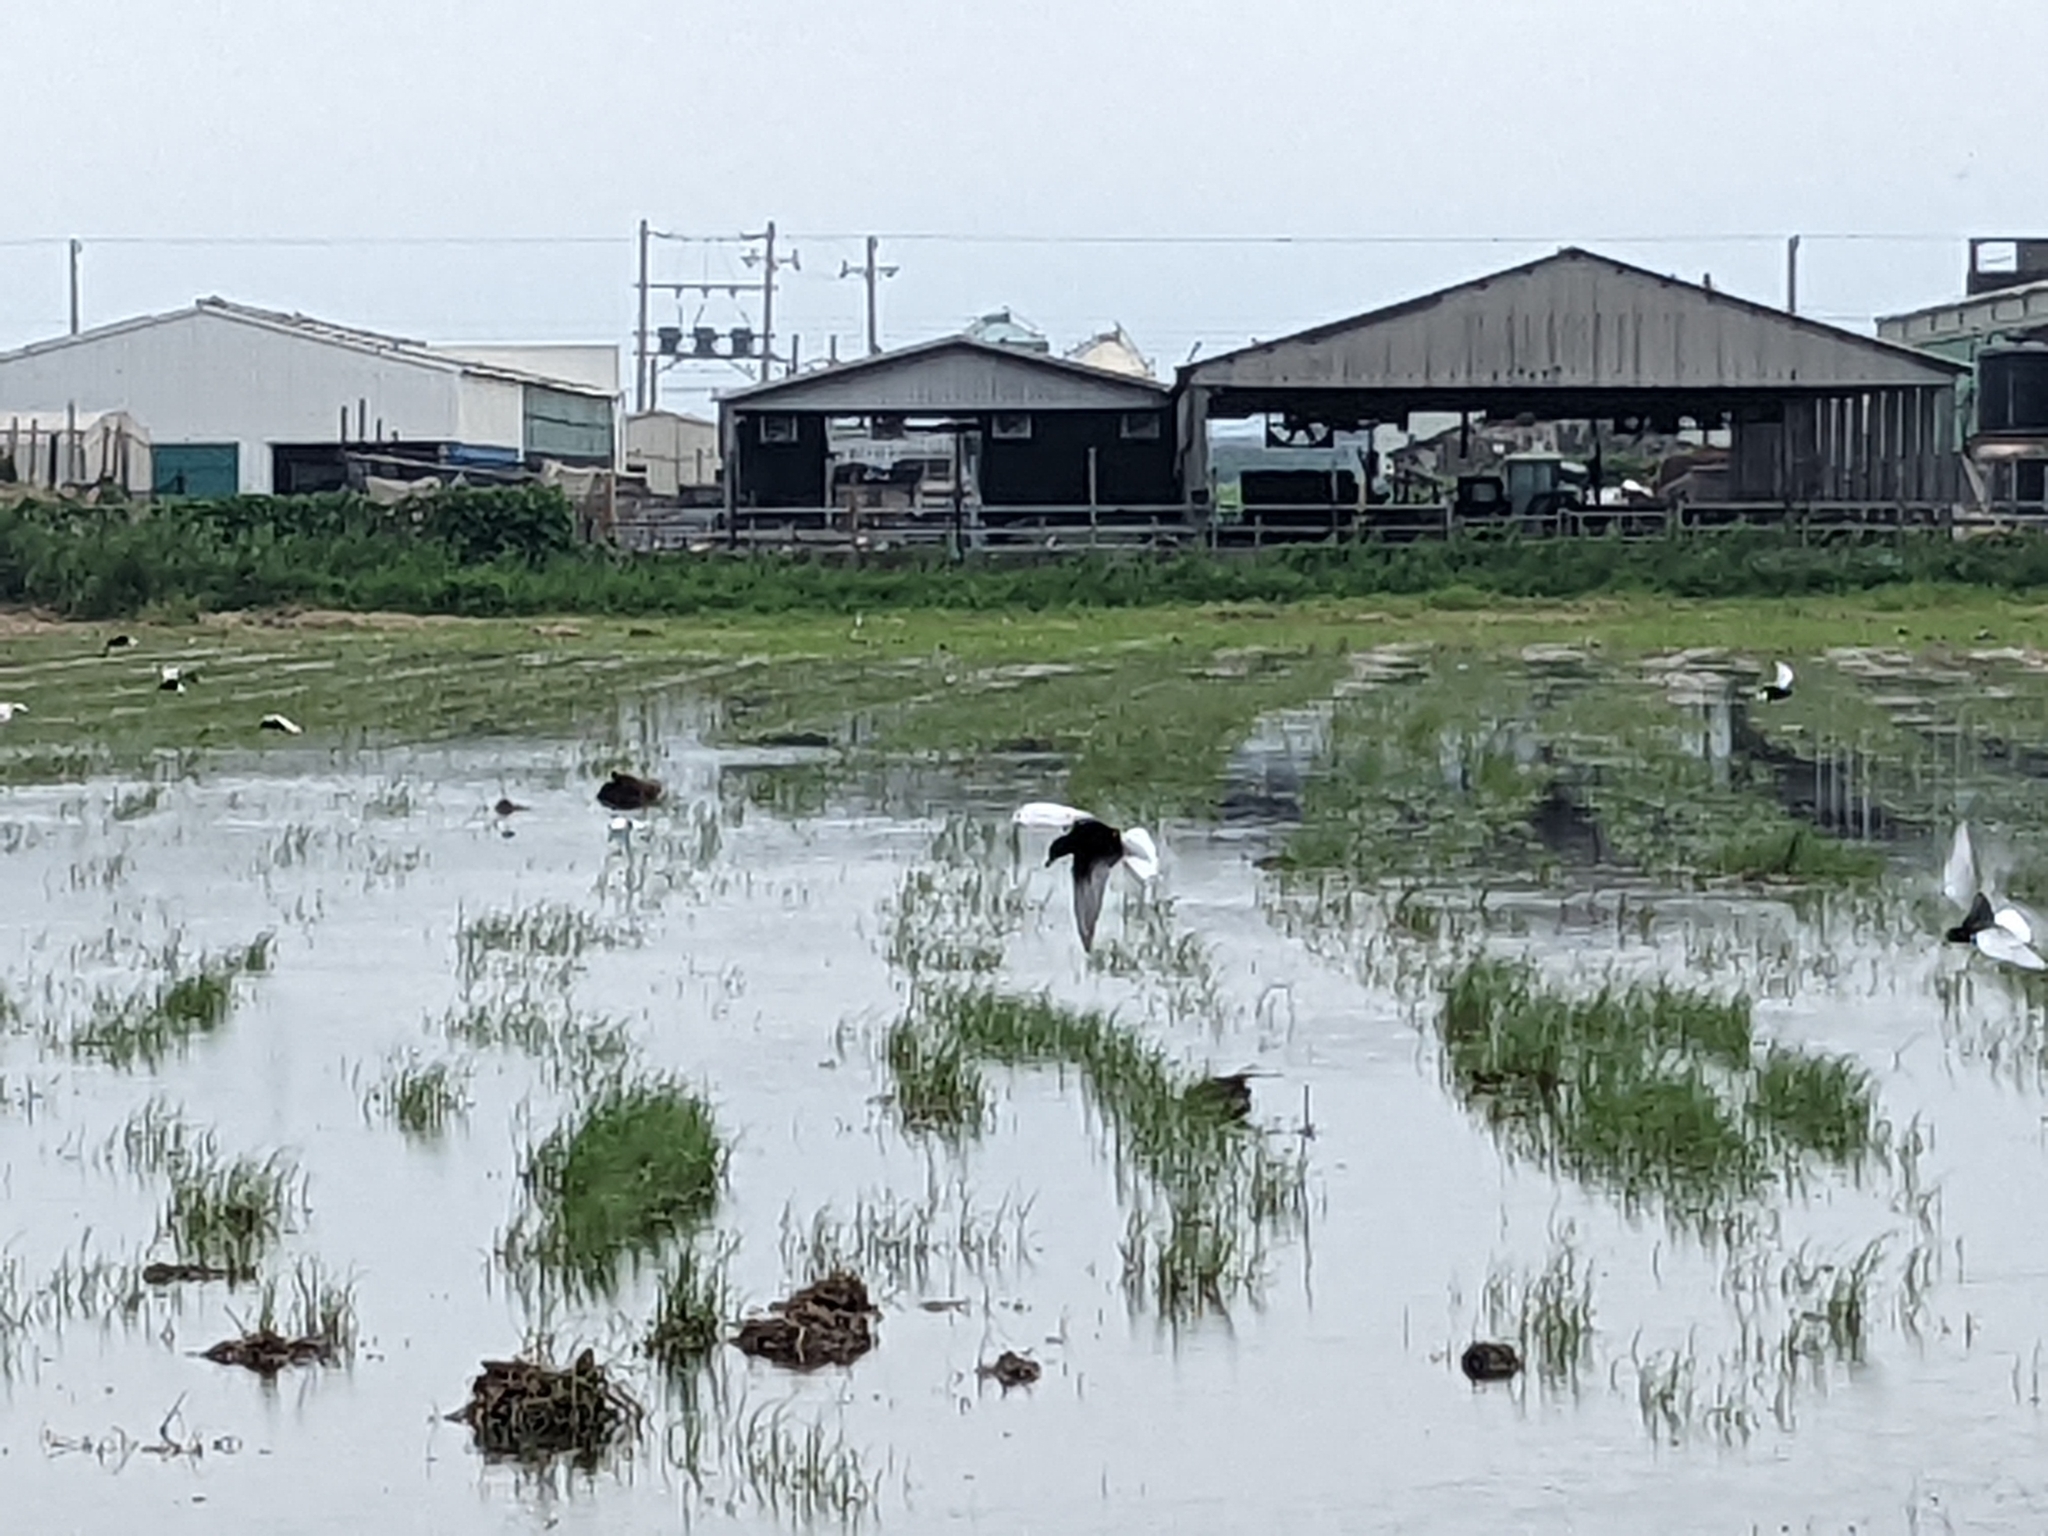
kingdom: Animalia
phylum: Chordata
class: Aves
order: Charadriiformes
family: Laridae
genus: Chlidonias
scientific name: Chlidonias leucopterus
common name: White-winged tern
